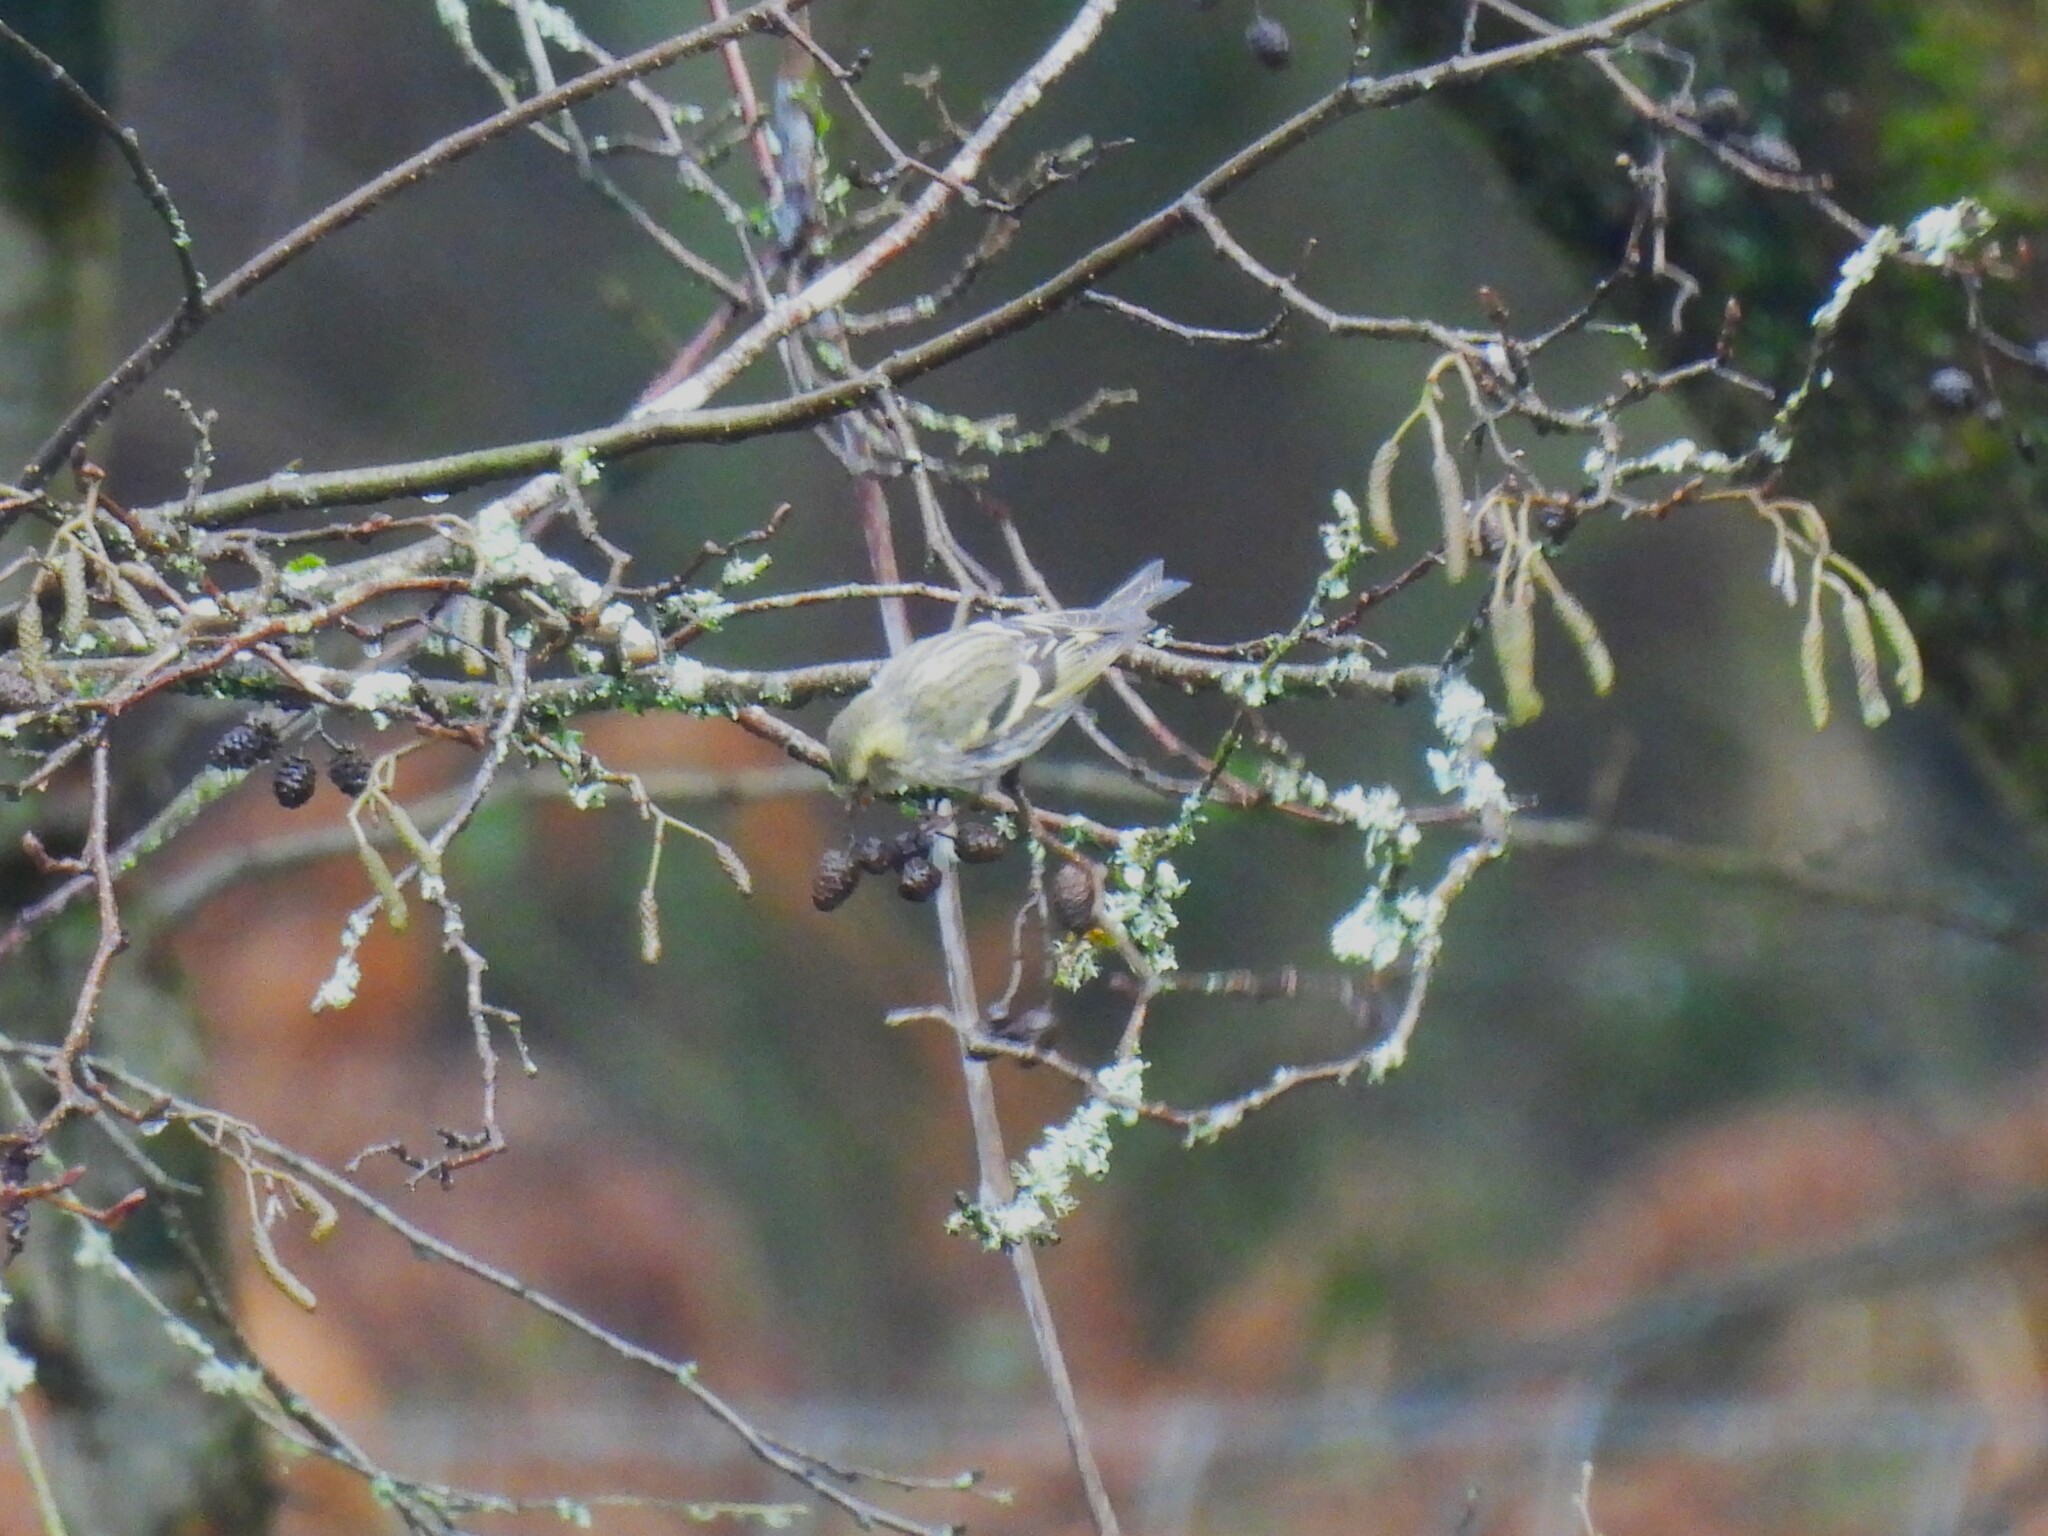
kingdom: Animalia
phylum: Chordata
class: Aves
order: Passeriformes
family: Fringillidae
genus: Spinus
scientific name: Spinus spinus
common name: Eurasian siskin
